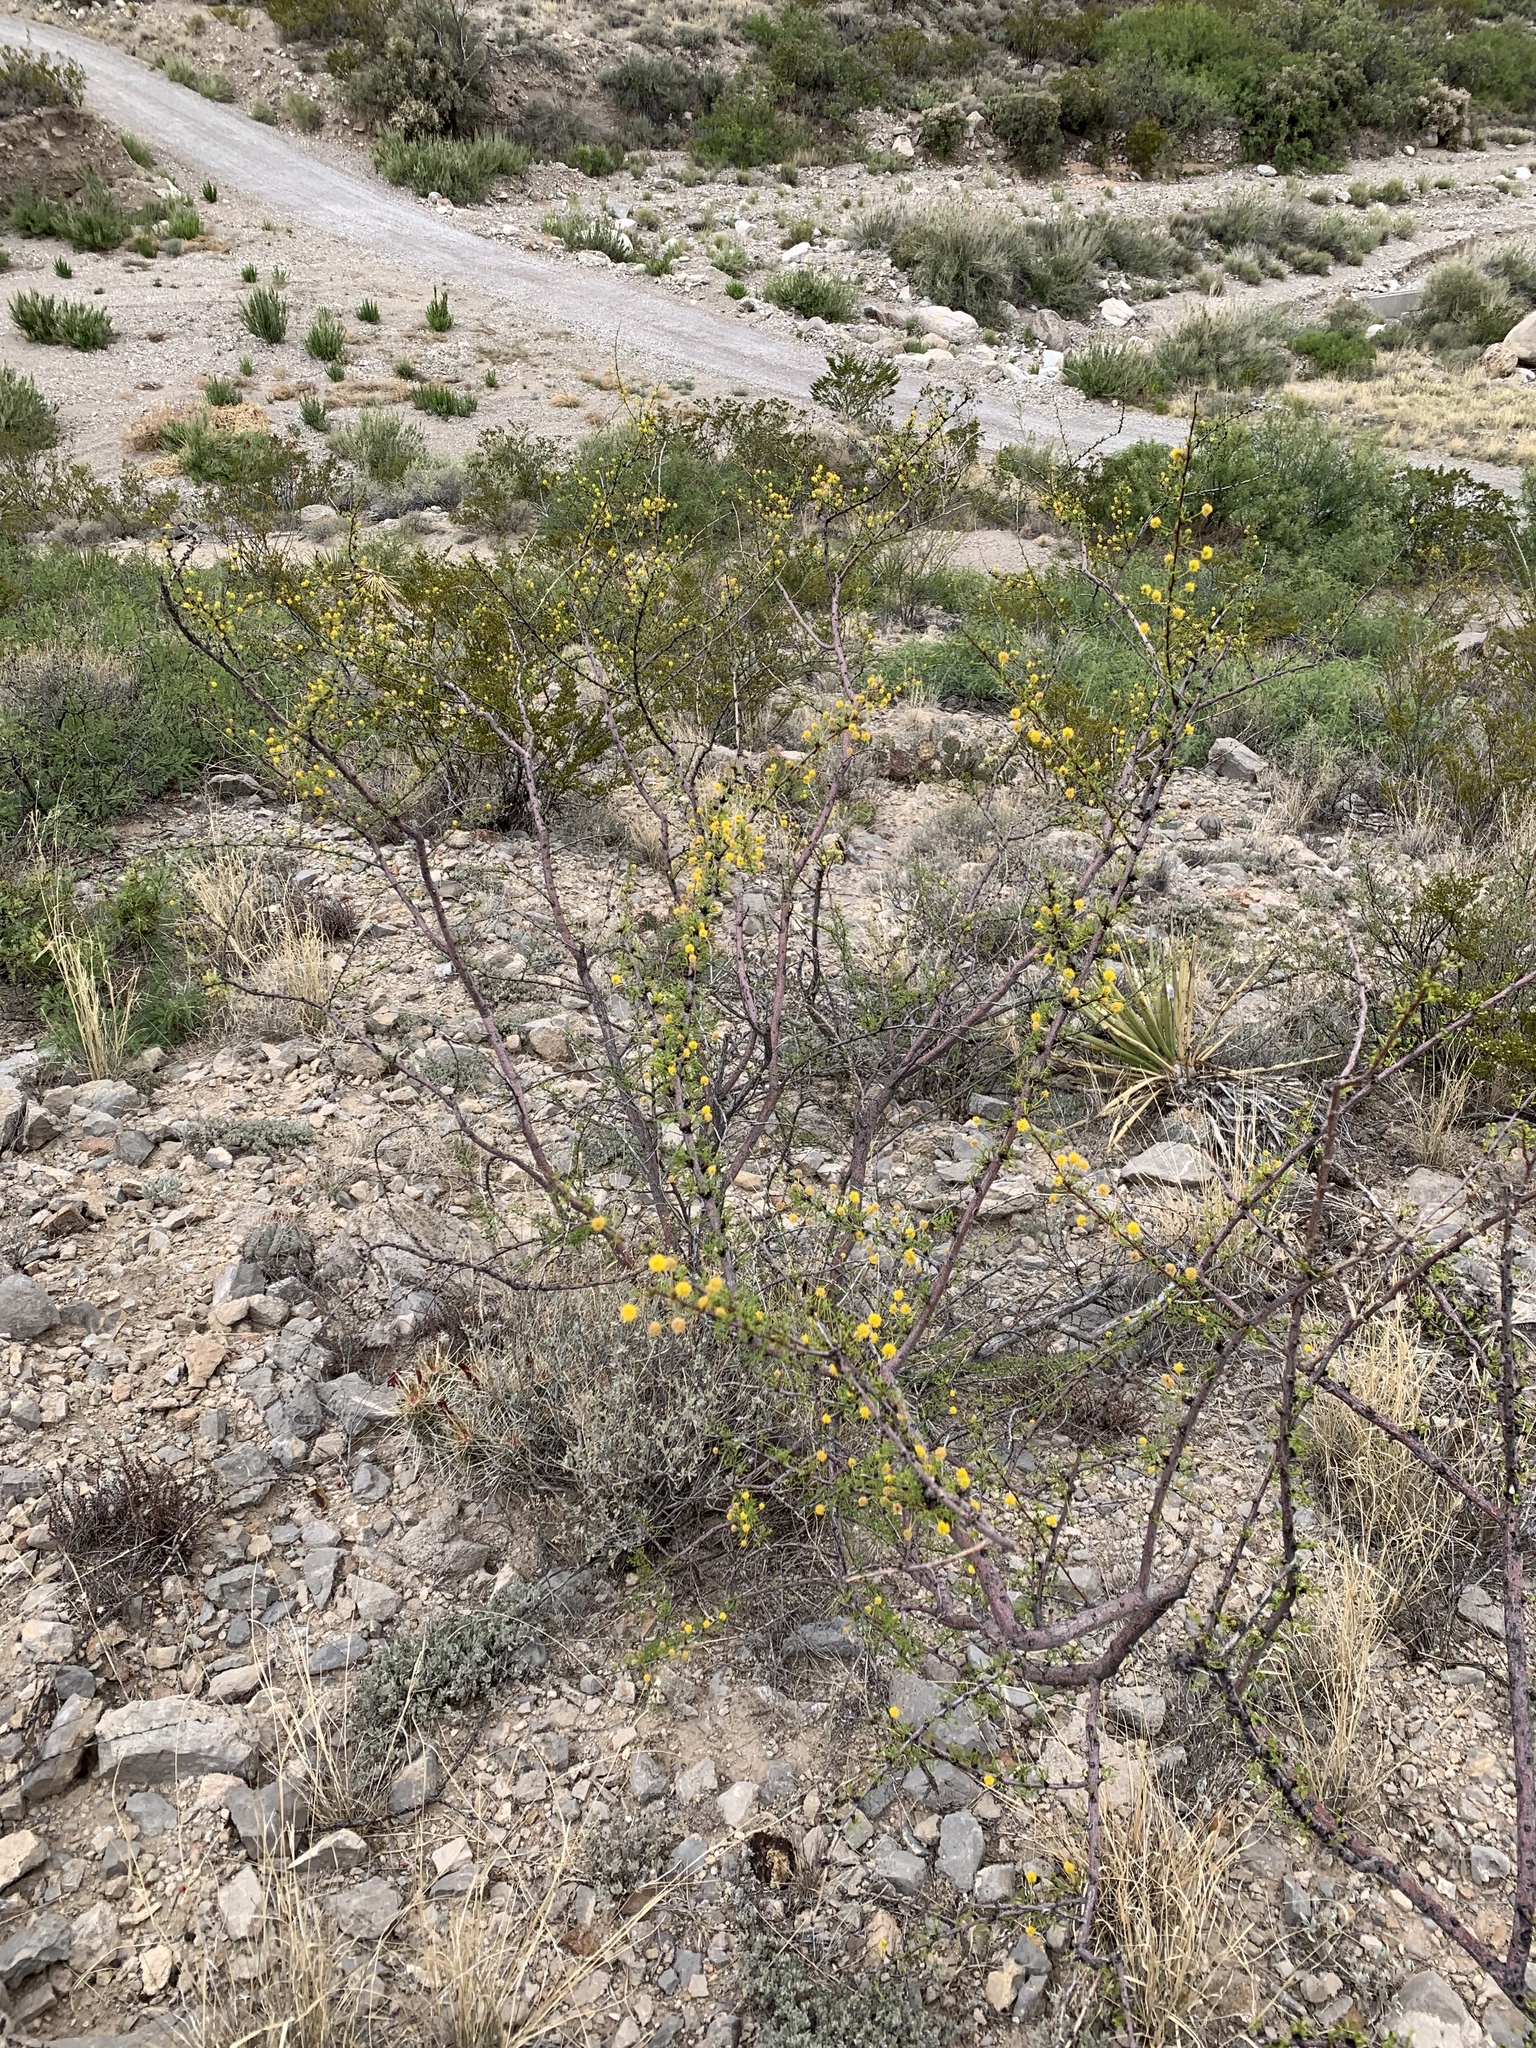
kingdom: Plantae
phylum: Tracheophyta
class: Magnoliopsida
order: Fabales
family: Fabaceae
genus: Vachellia
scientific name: Vachellia vernicosa
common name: Viscid acacia
